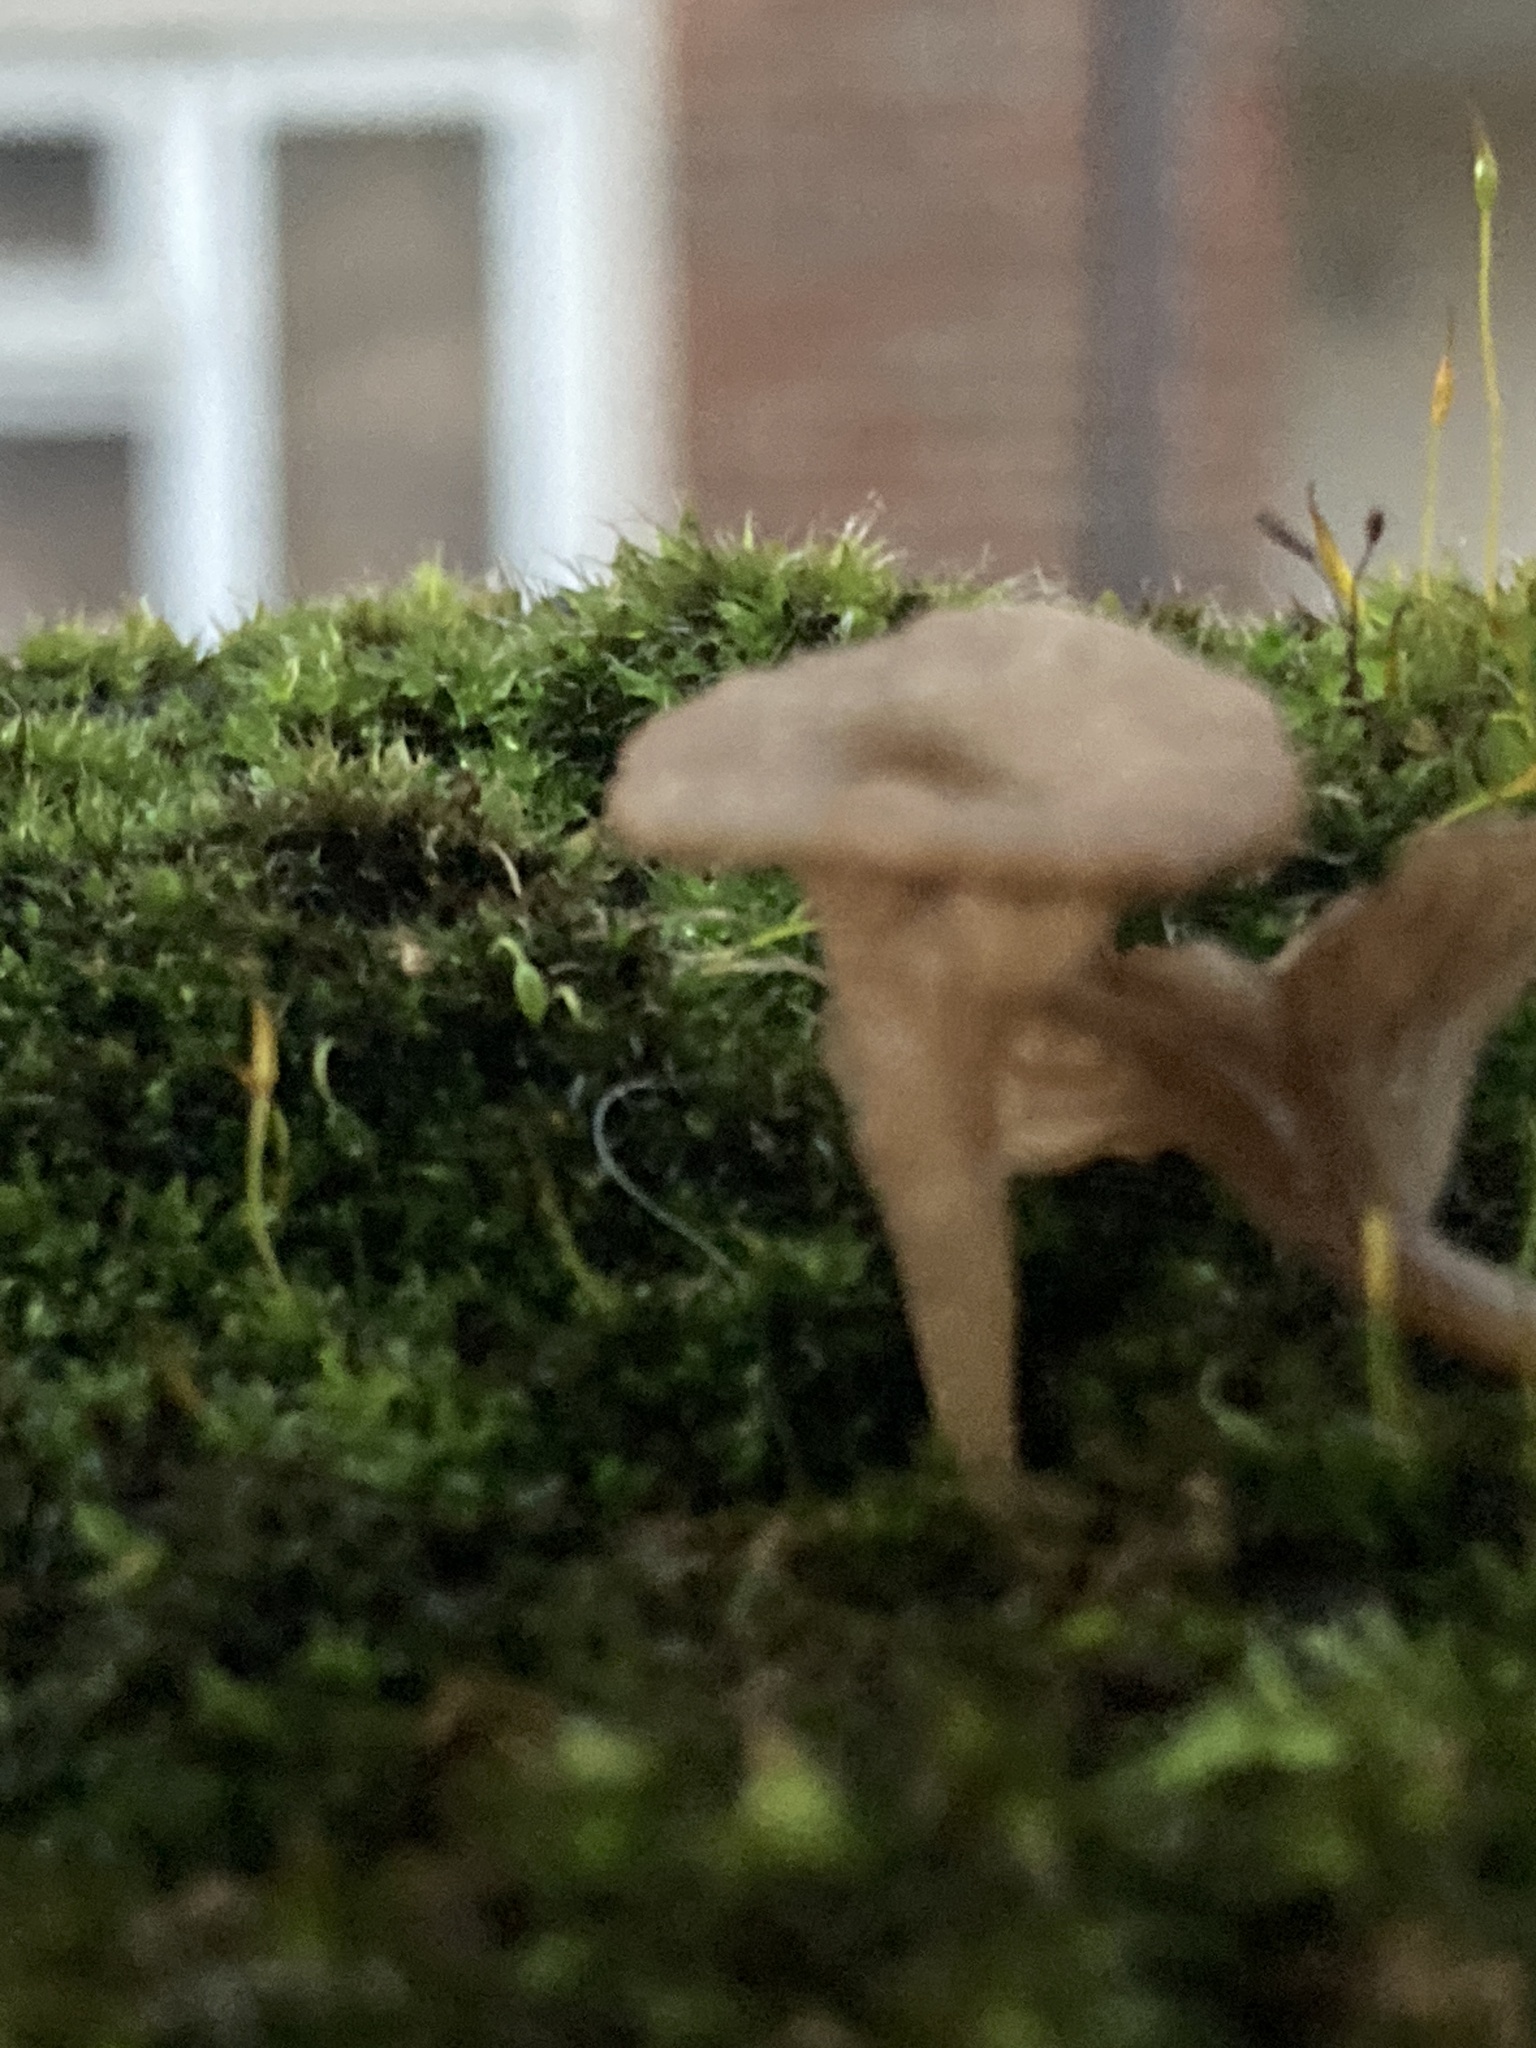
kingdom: Fungi
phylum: Basidiomycota
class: Agaricomycetes
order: Agaricales
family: Hygrophoraceae
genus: Arrhenia
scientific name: Arrhenia rickenii
